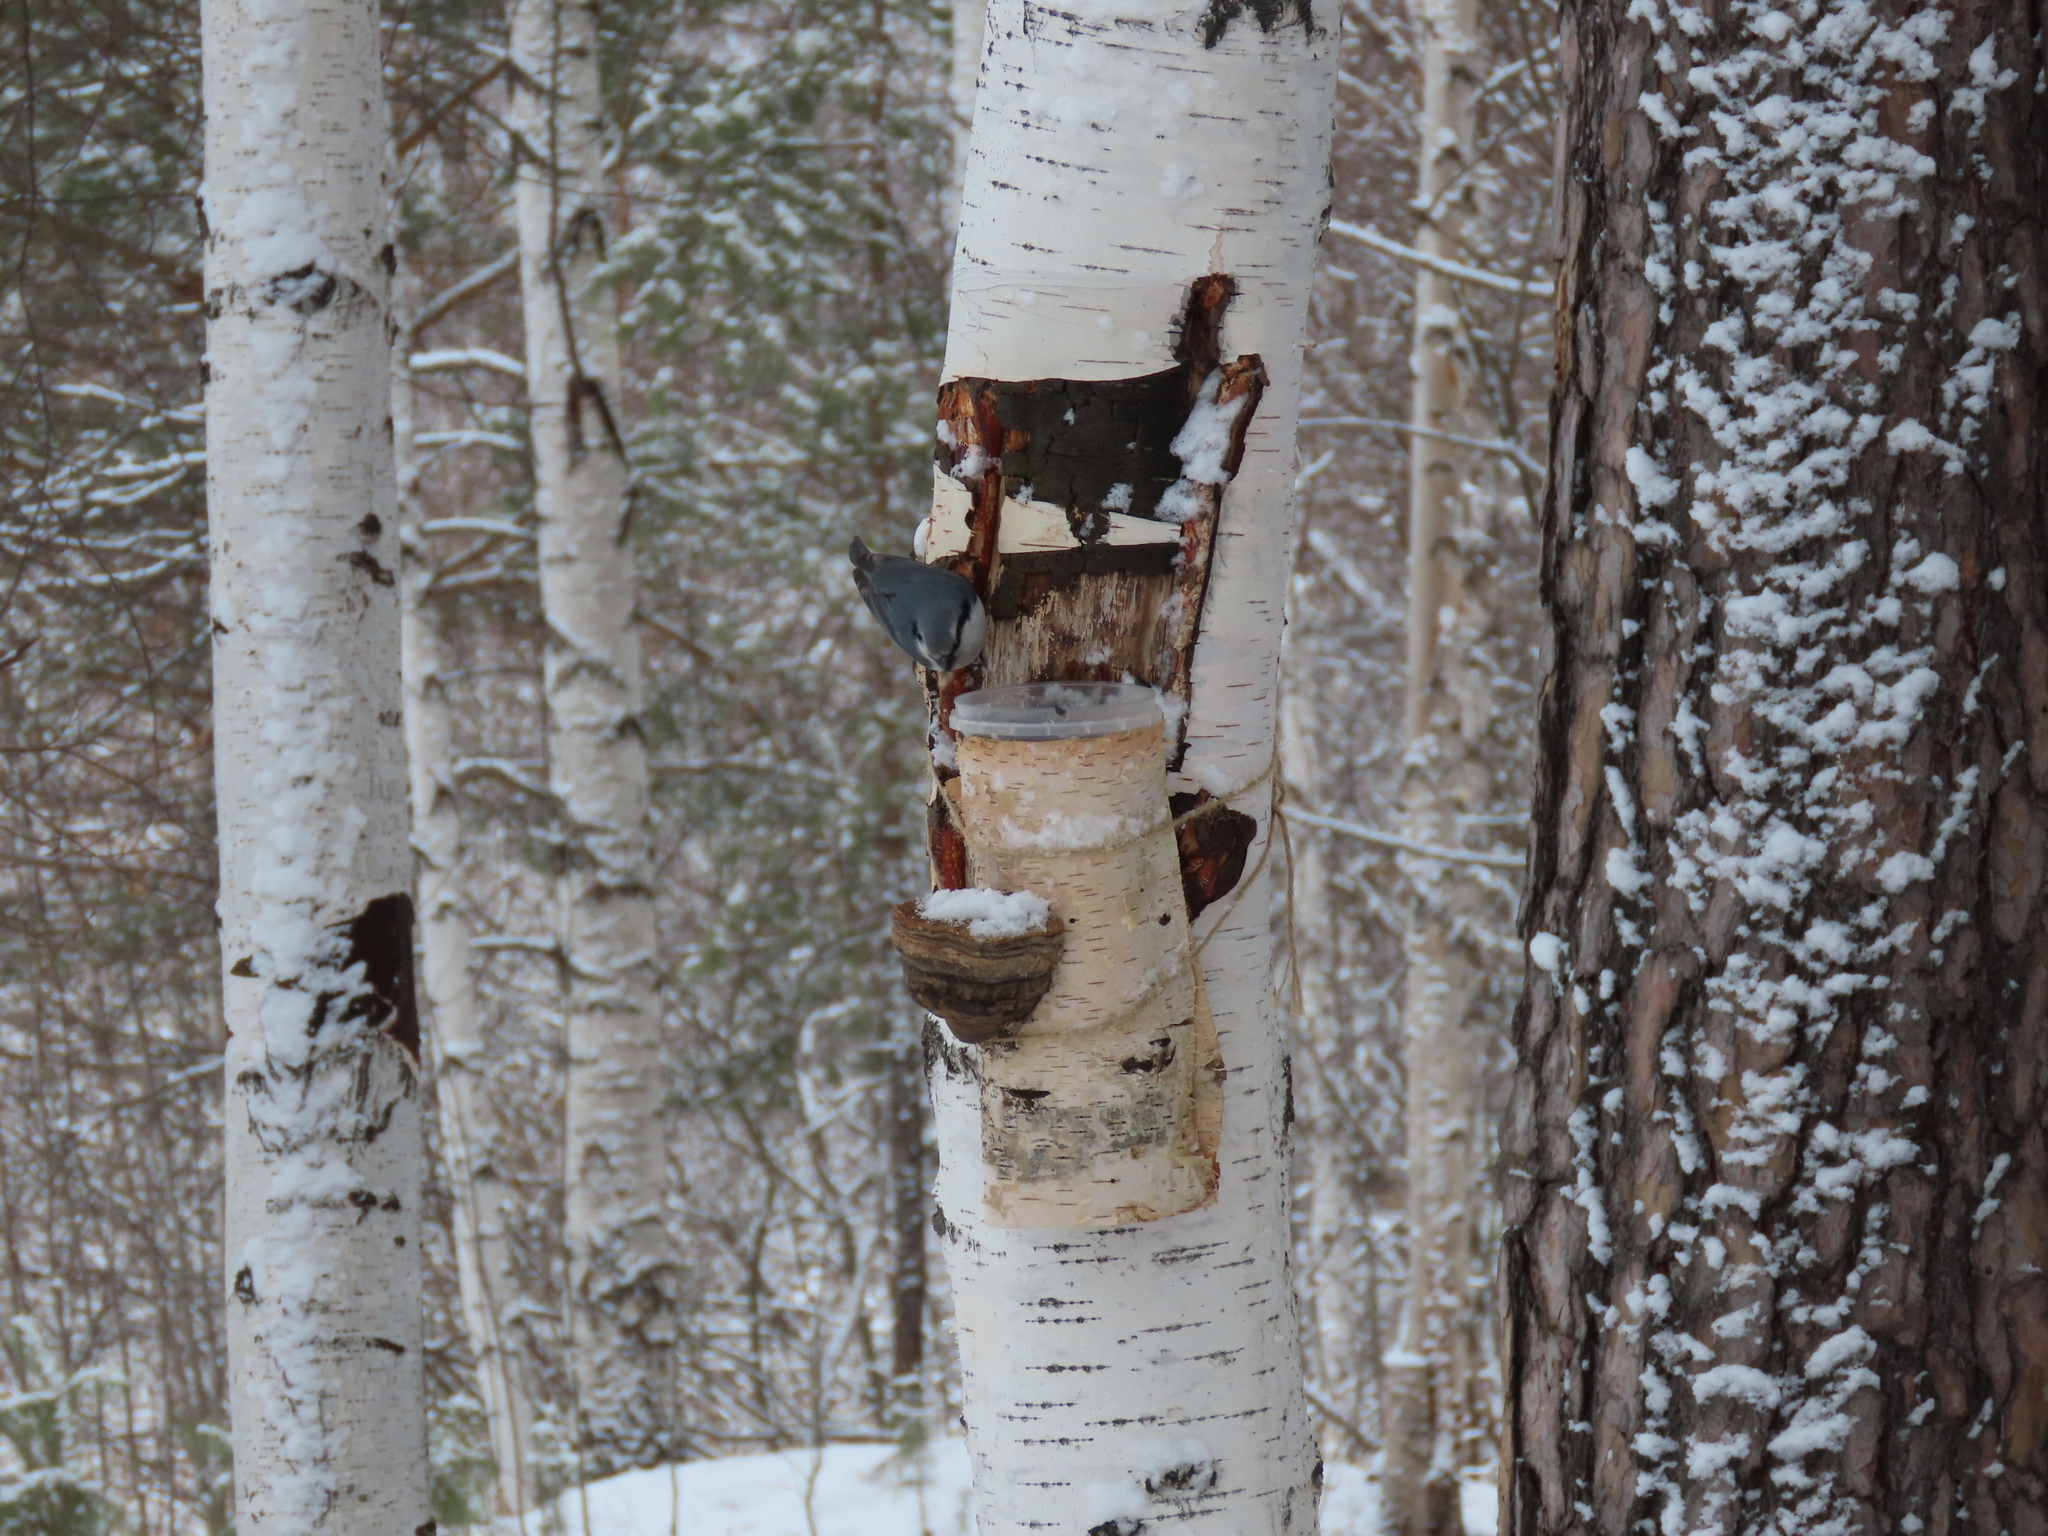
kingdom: Animalia
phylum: Chordata
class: Aves
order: Passeriformes
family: Sittidae
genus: Sitta
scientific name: Sitta europaea
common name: Eurasian nuthatch
